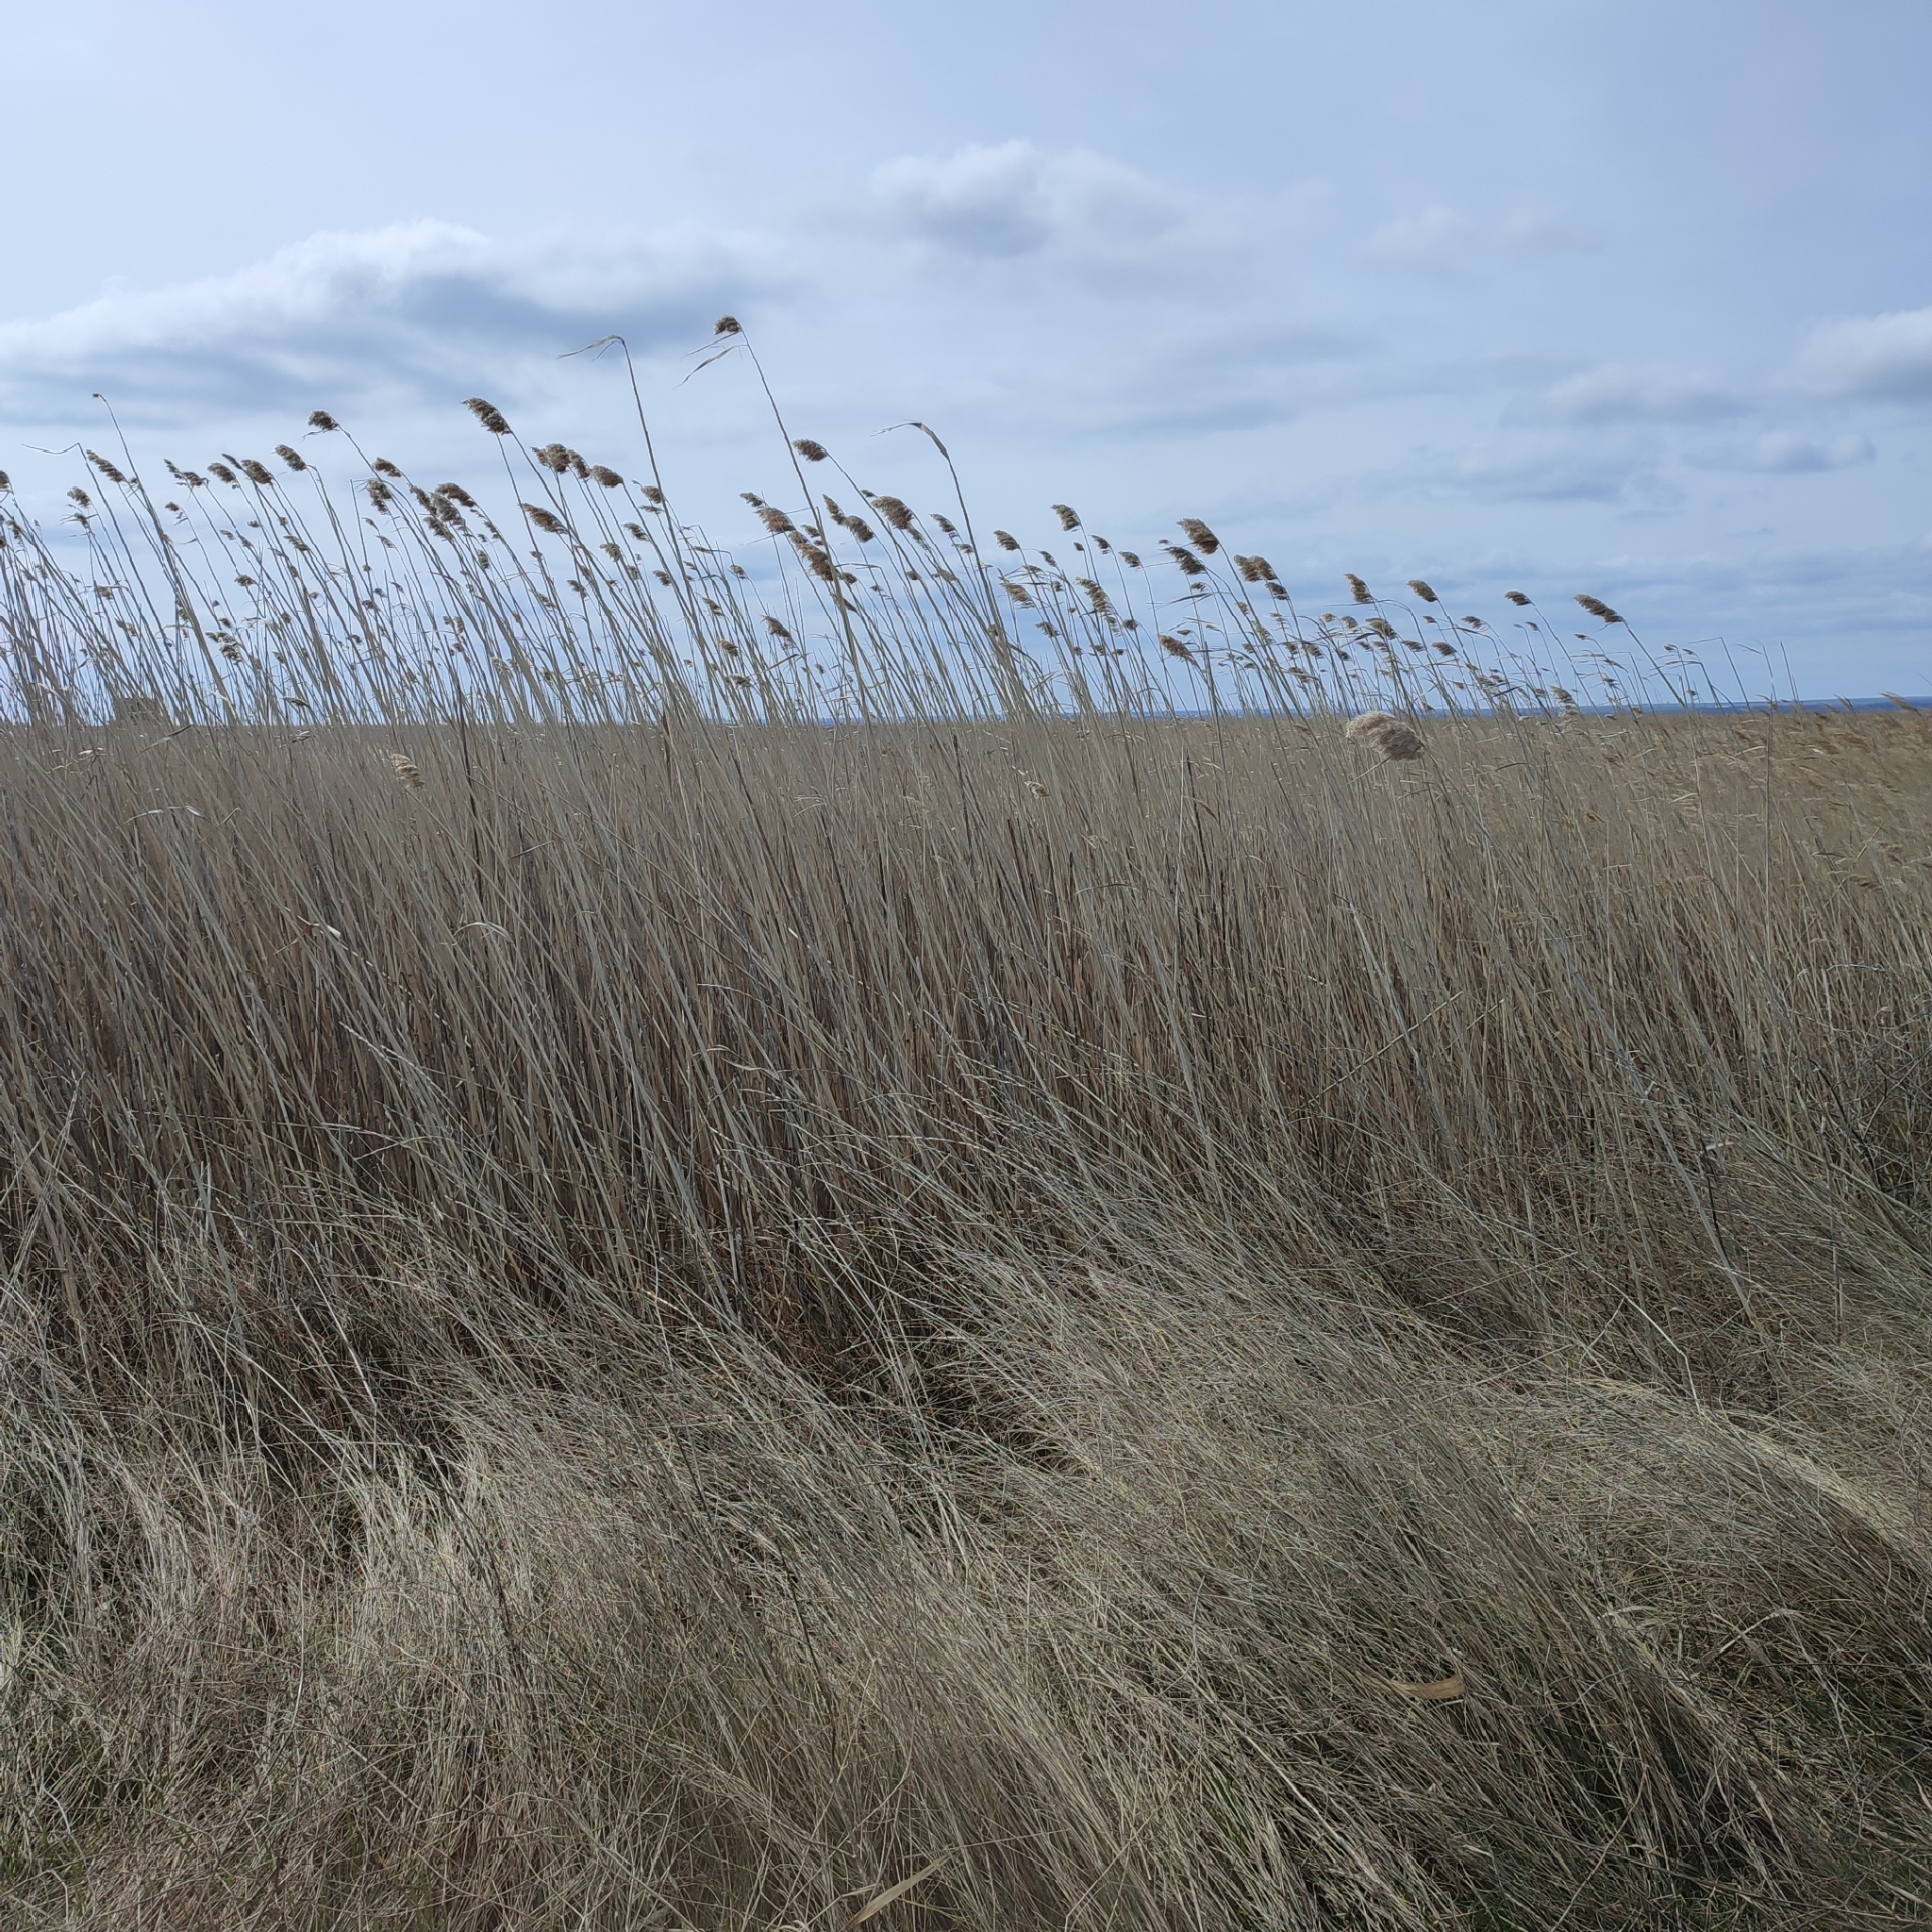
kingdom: Plantae
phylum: Tracheophyta
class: Liliopsida
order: Poales
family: Poaceae
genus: Phragmites
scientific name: Phragmites australis
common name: Common reed
